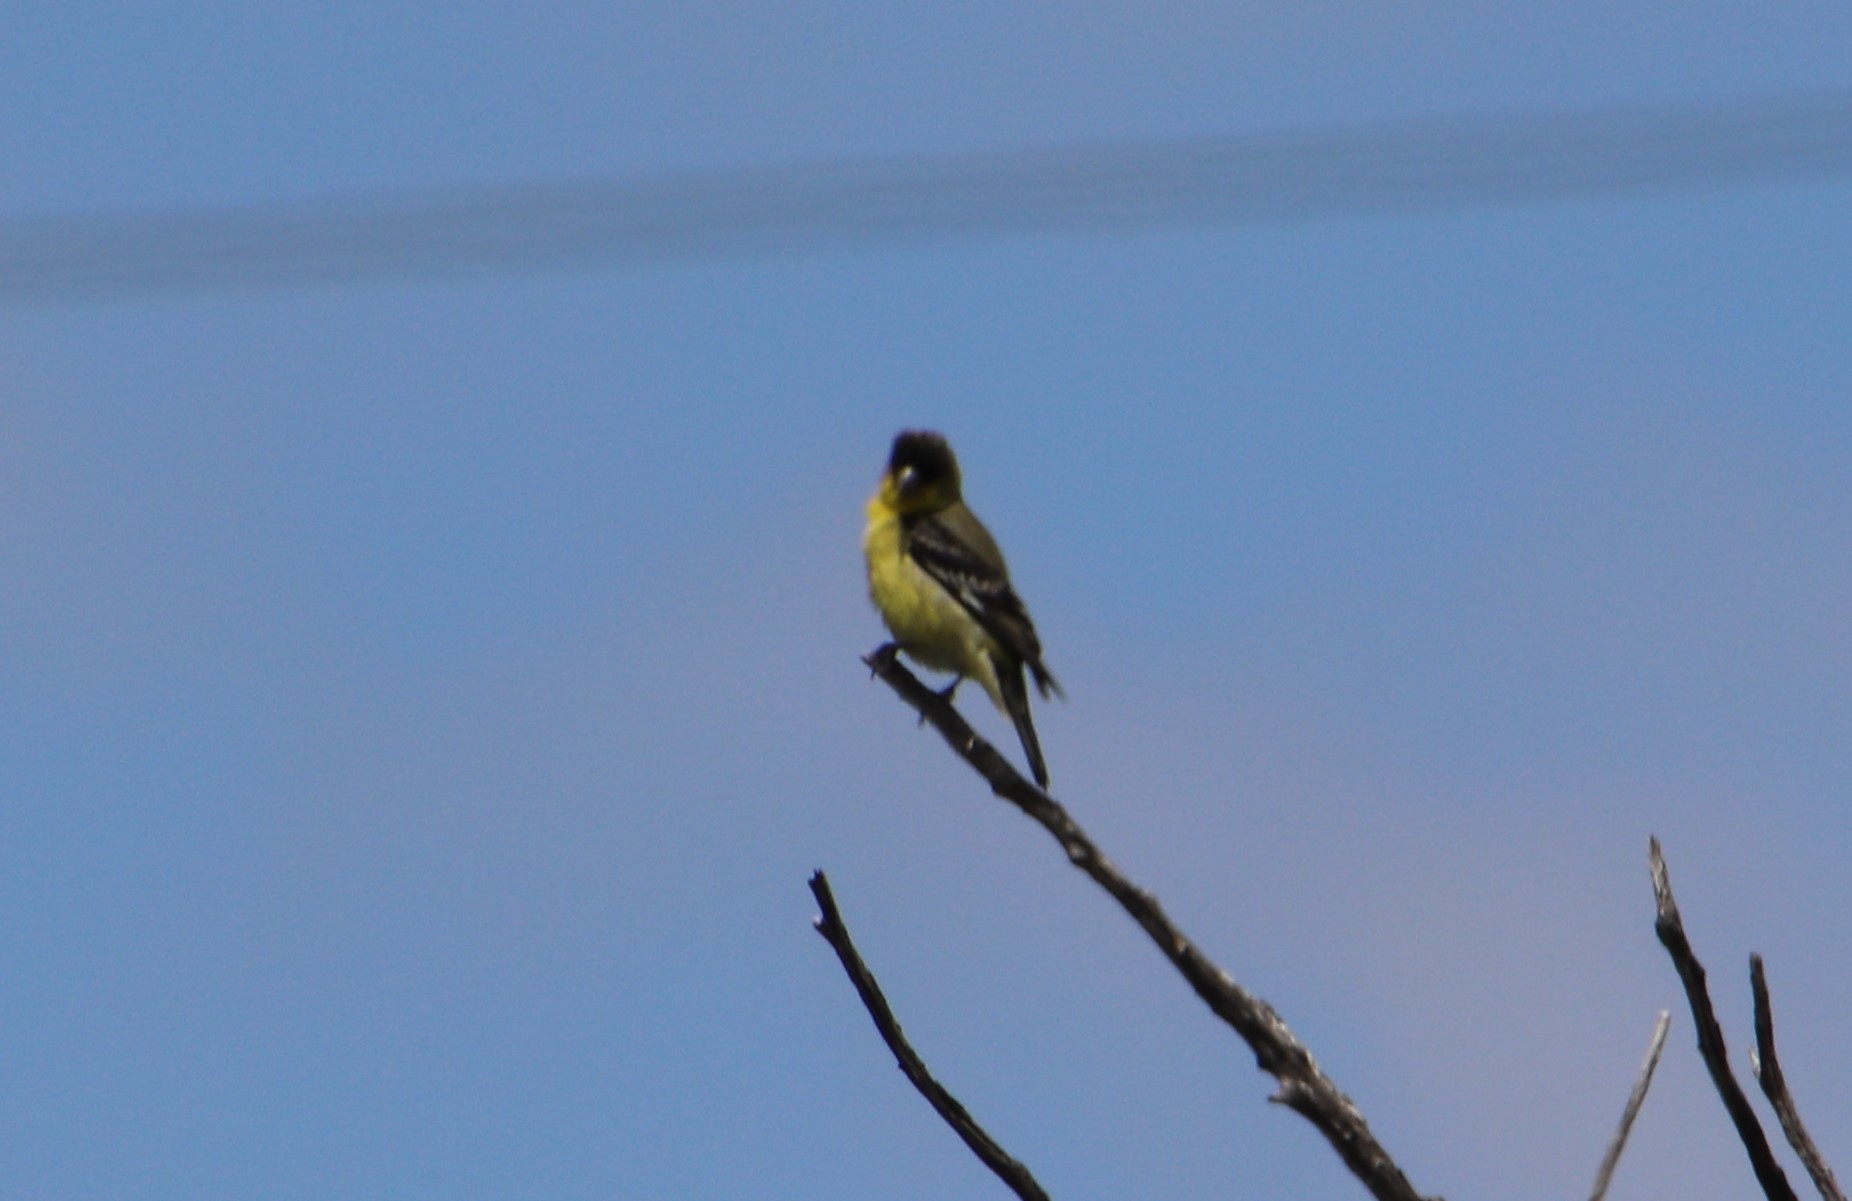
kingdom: Animalia
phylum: Chordata
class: Aves
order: Passeriformes
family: Fringillidae
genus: Spinus
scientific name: Spinus psaltria
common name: Lesser goldfinch
